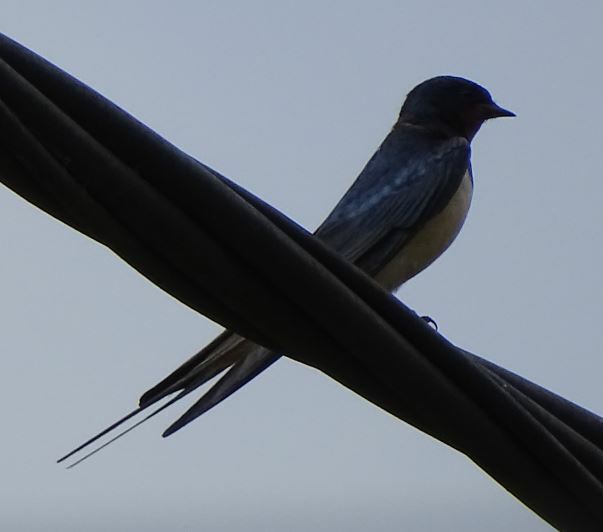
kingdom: Animalia
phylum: Chordata
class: Aves
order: Passeriformes
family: Hirundinidae
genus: Hirundo
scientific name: Hirundo rustica
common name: Barn swallow
